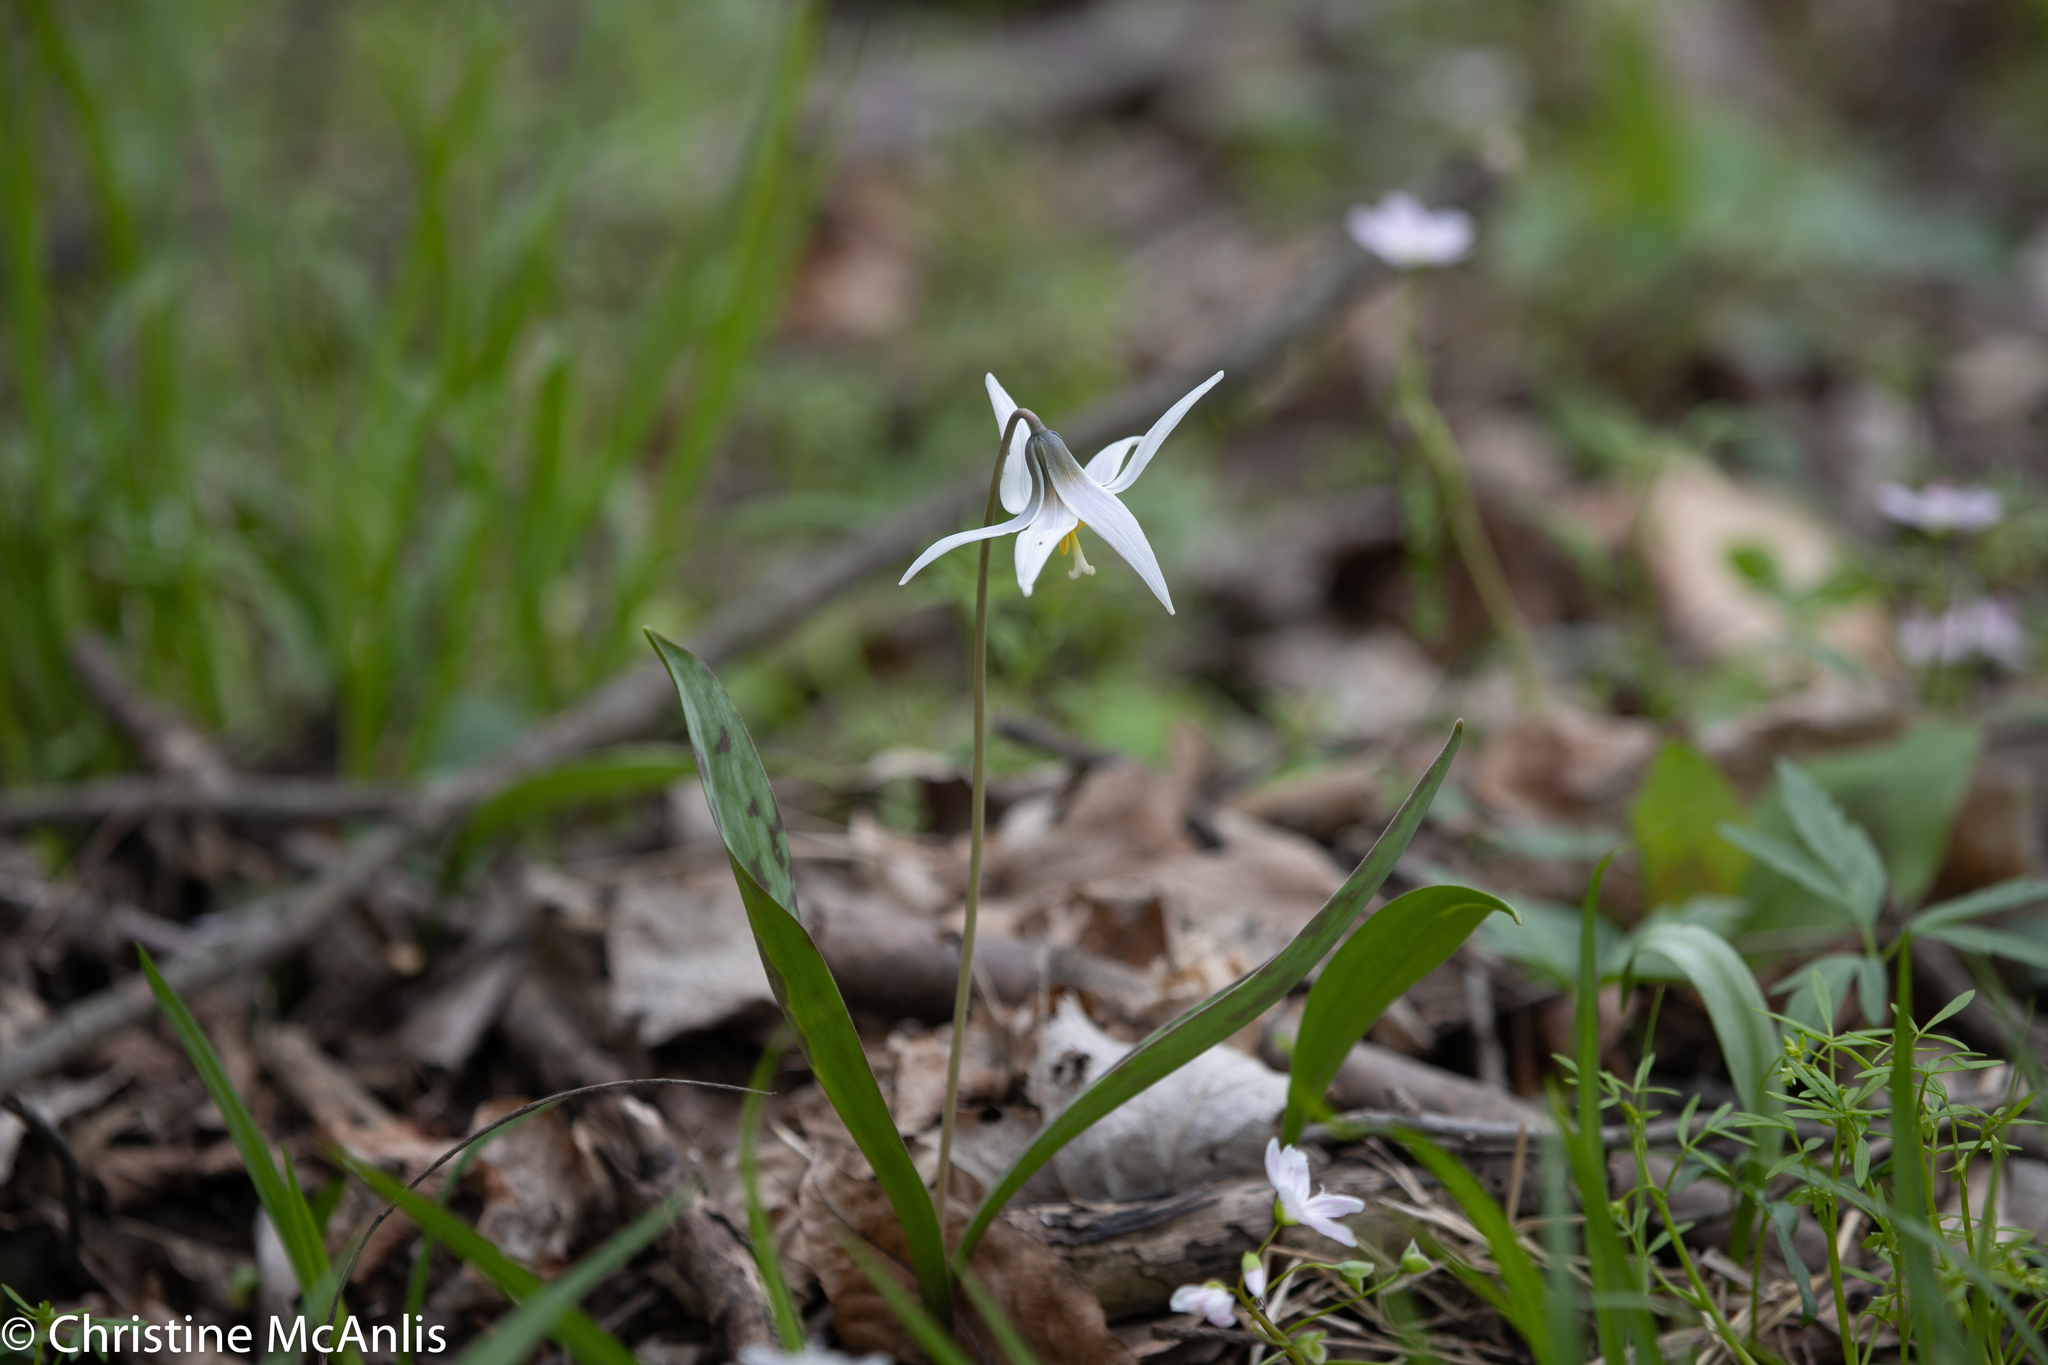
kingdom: Plantae
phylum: Tracheophyta
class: Liliopsida
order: Liliales
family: Liliaceae
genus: Erythronium
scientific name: Erythronium albidum
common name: White trout-lily
